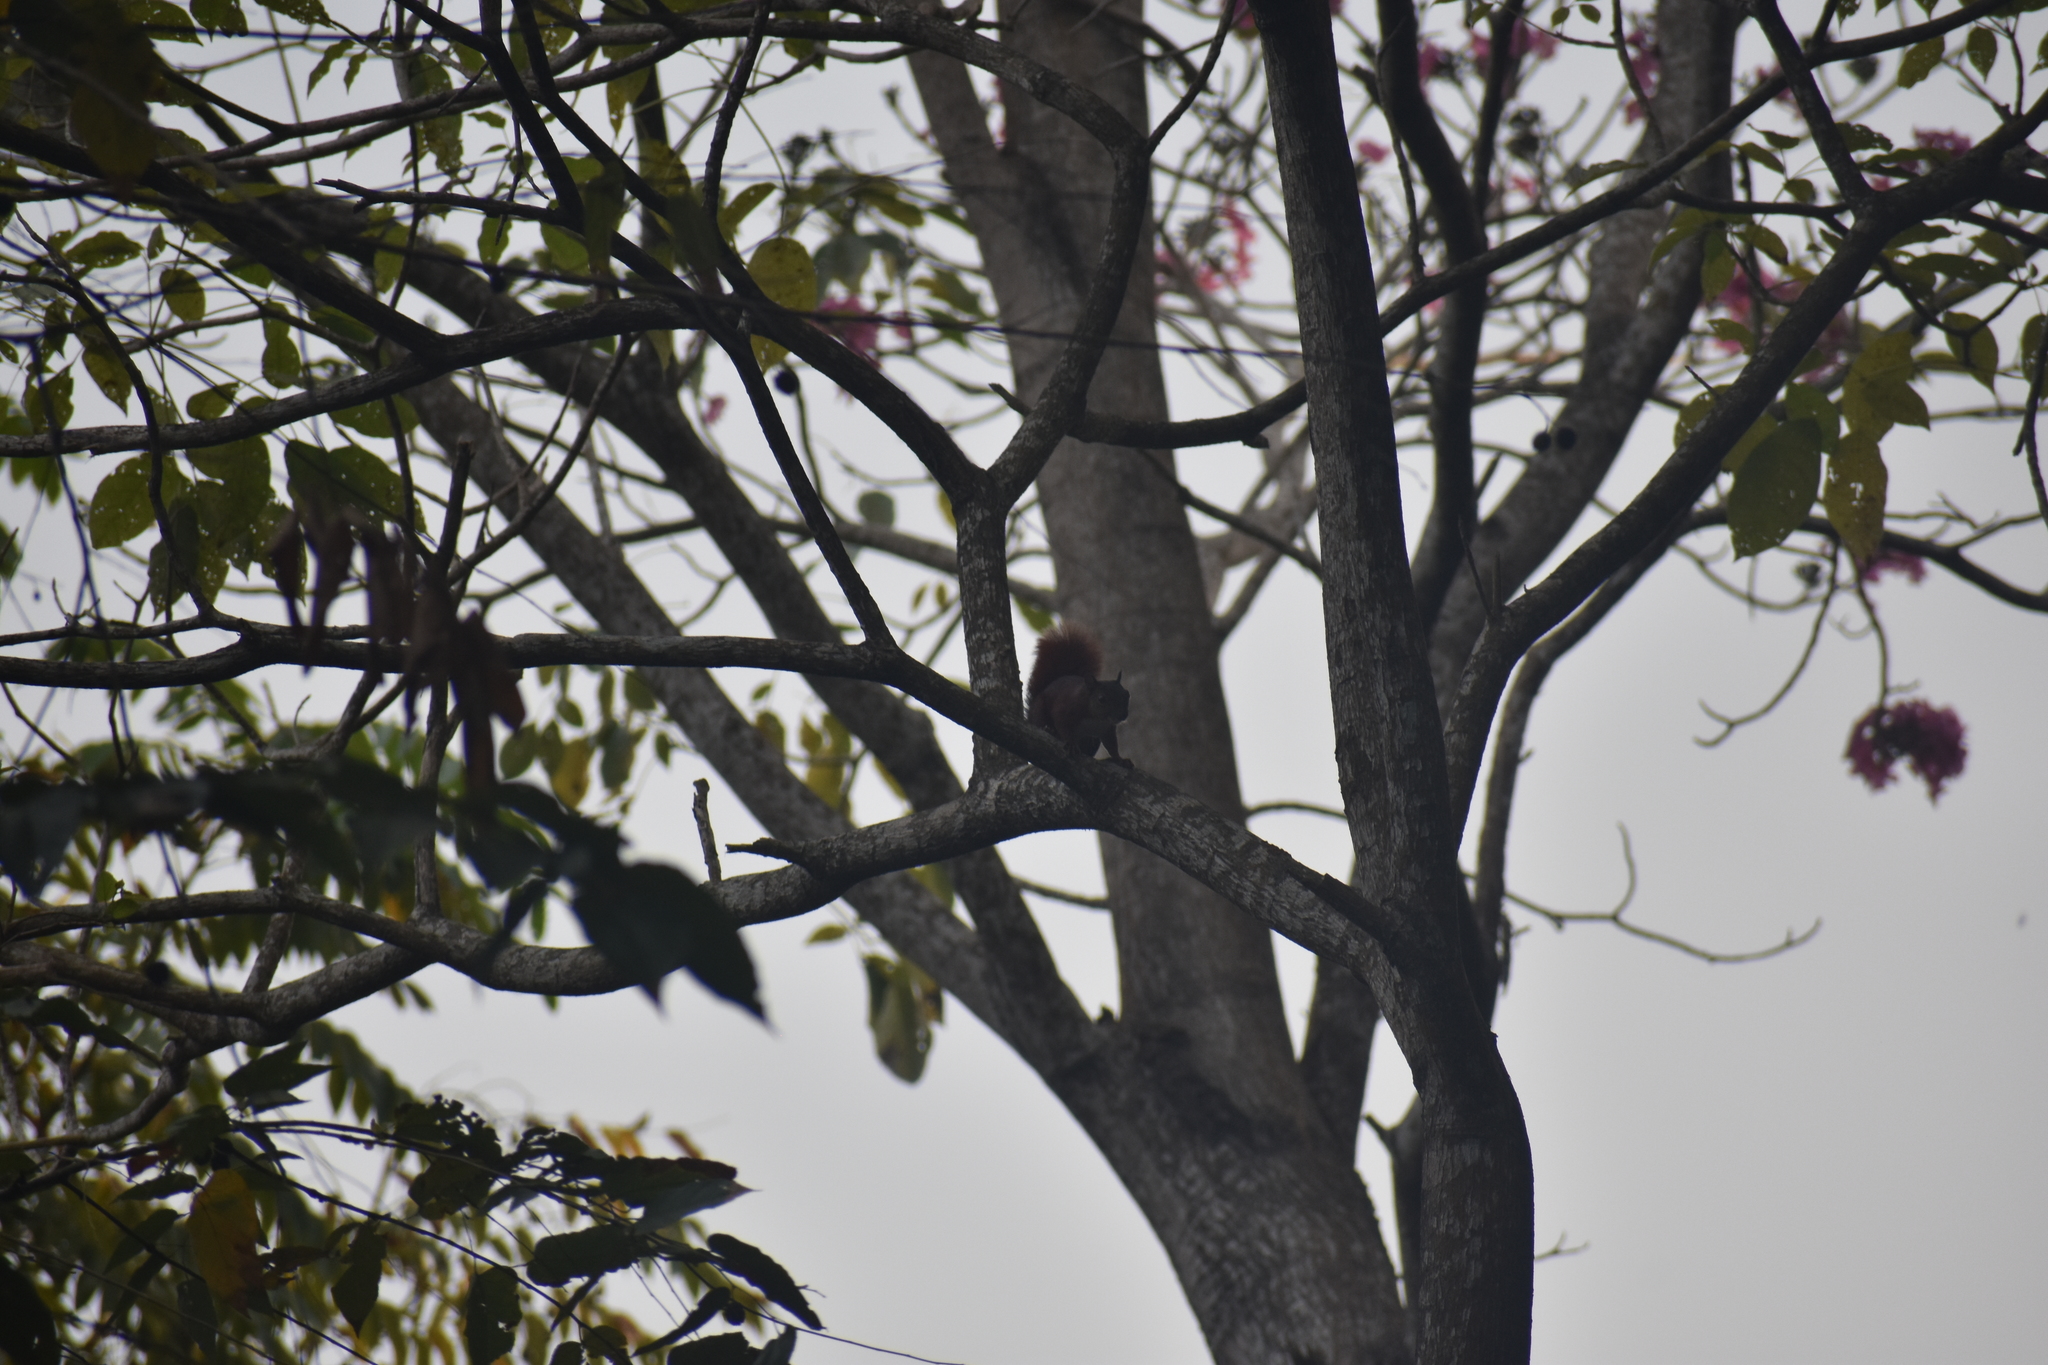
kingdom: Animalia
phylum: Chordata
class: Mammalia
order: Rodentia
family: Sciuridae
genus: Sciurus
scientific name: Sciurus granatensis
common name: Red-tailed squirrel
